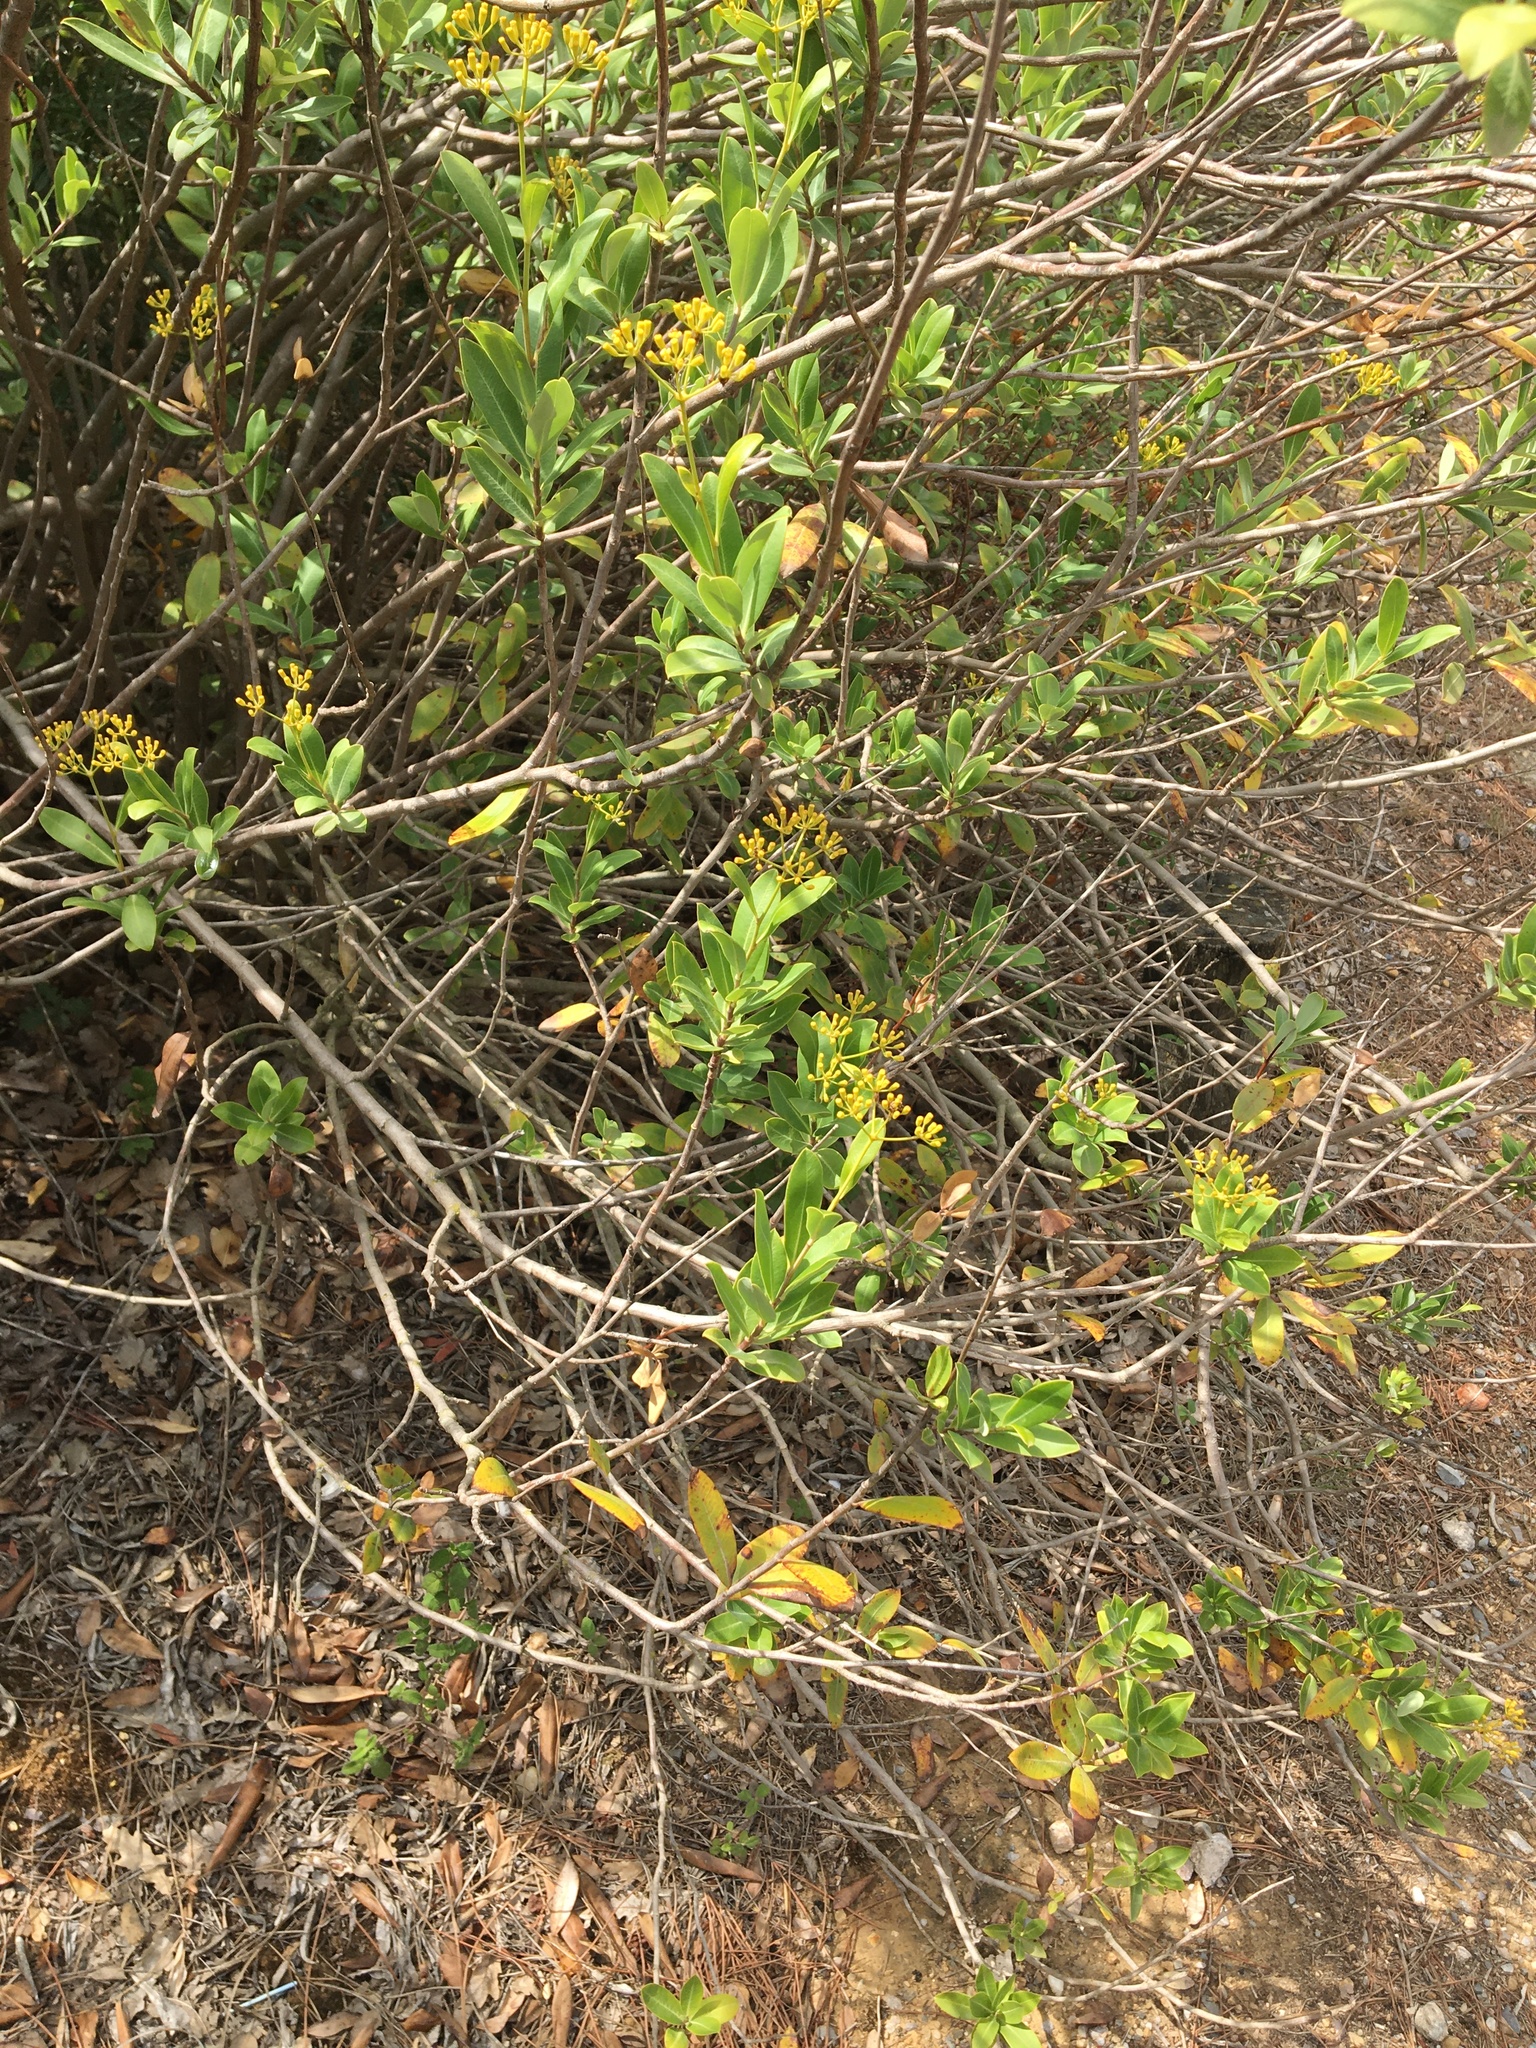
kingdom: Plantae
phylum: Tracheophyta
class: Magnoliopsida
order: Apiales
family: Apiaceae
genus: Bupleurum
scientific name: Bupleurum fruticosum
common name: Shrubby hare's-ear
